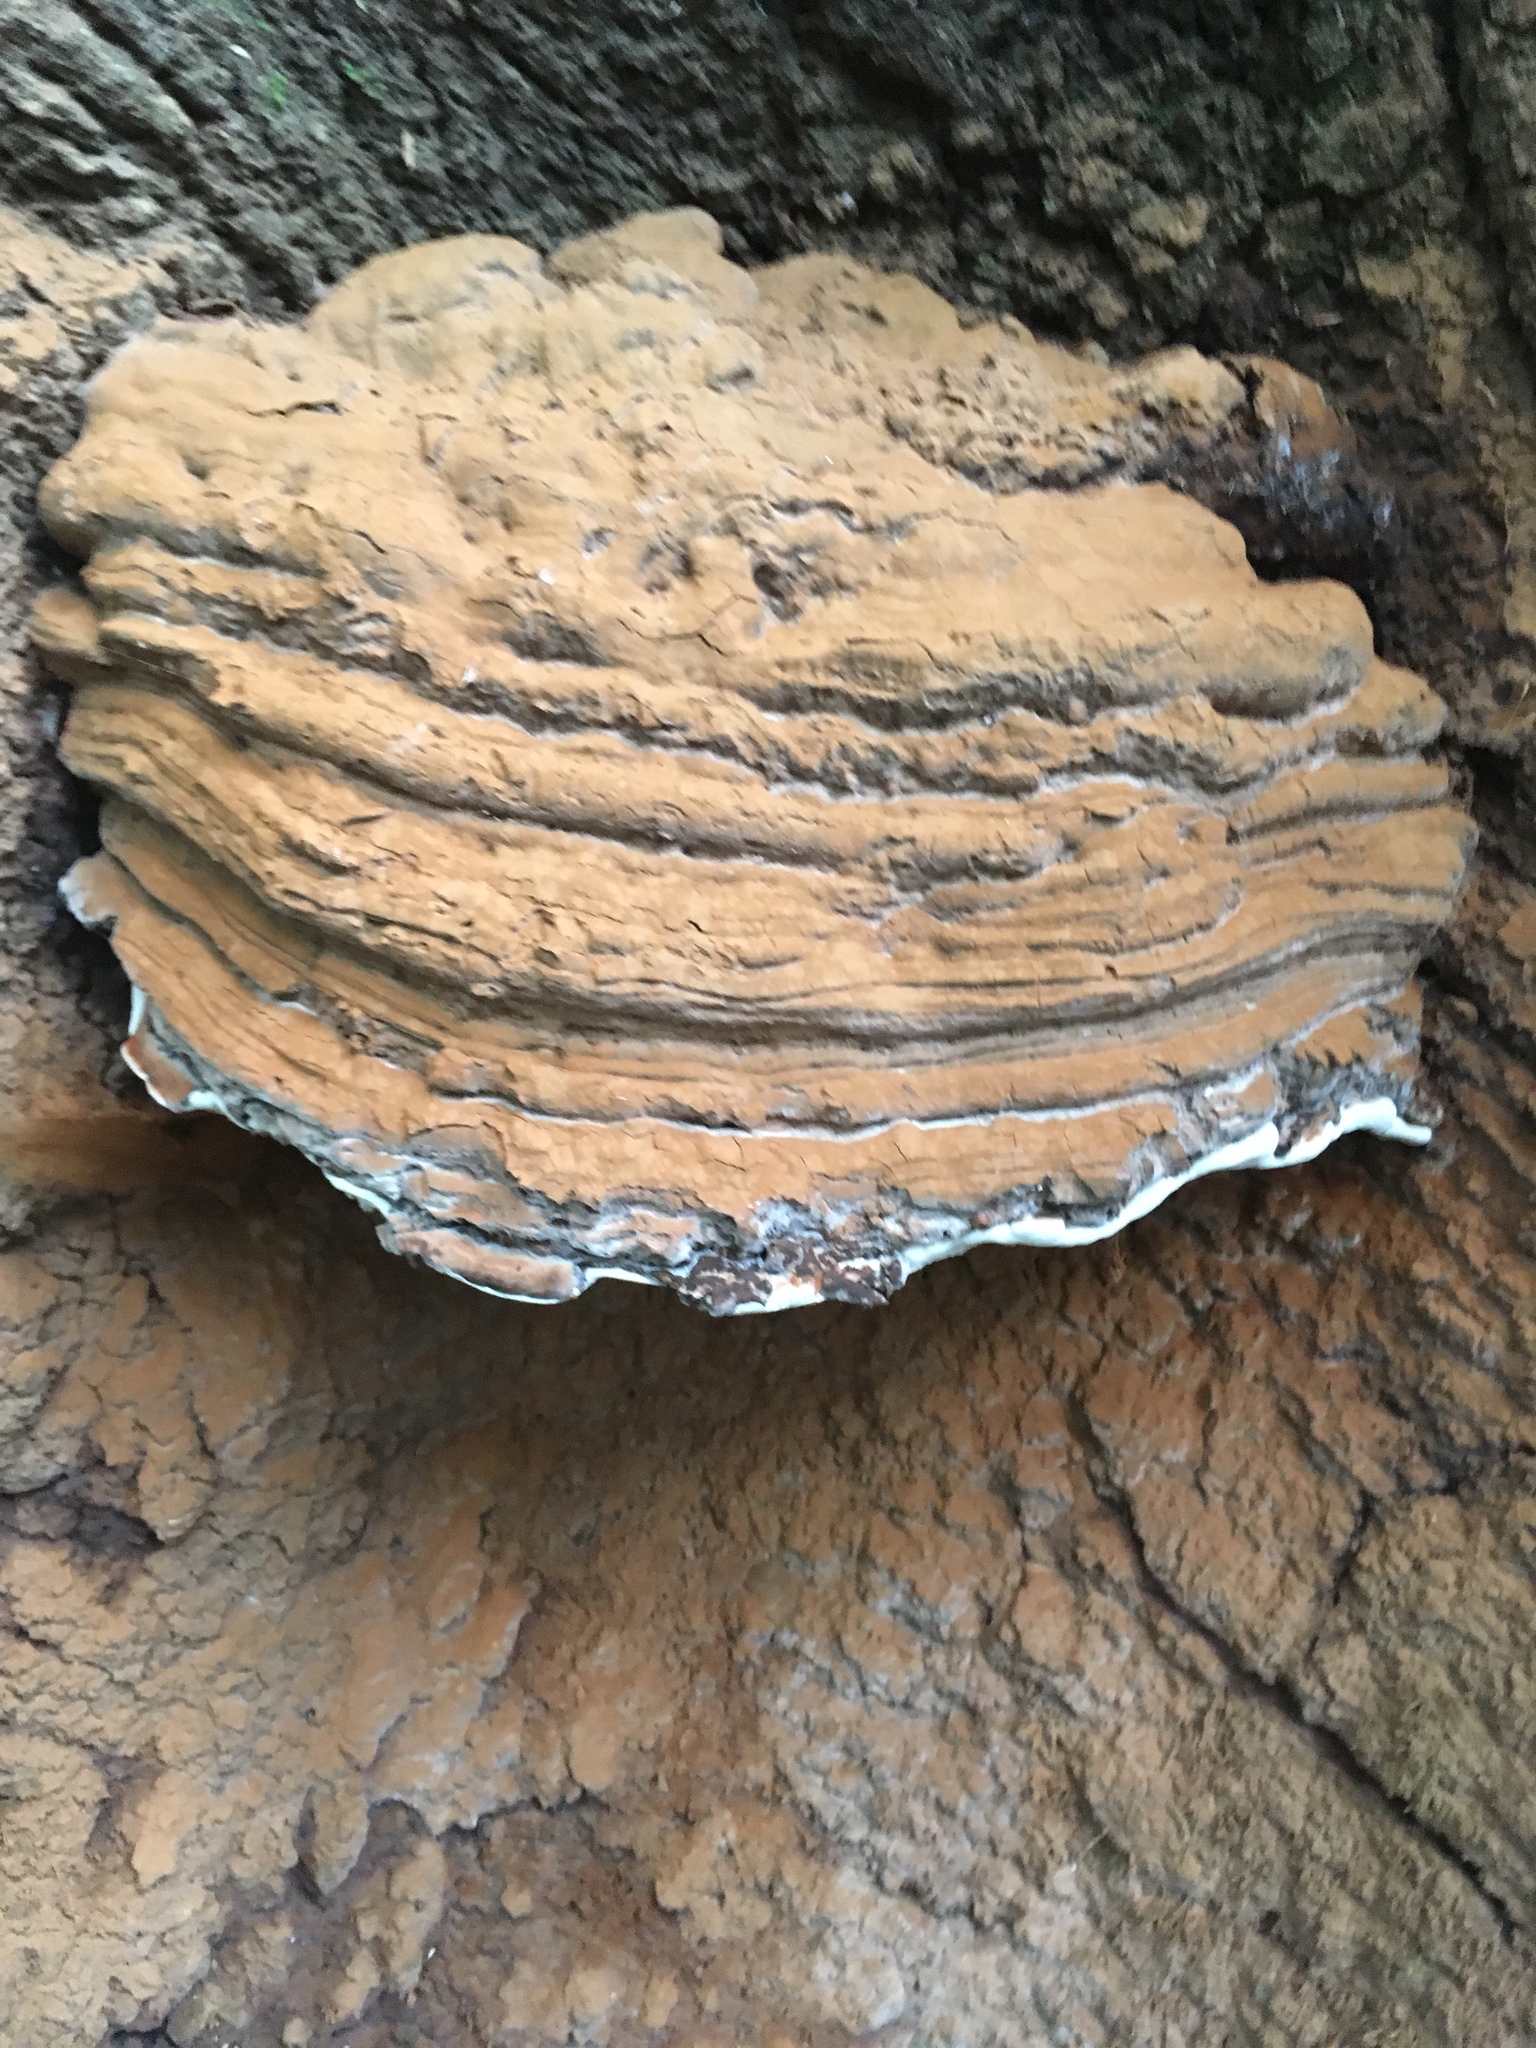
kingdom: Fungi
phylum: Basidiomycota
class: Agaricomycetes
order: Polyporales
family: Polyporaceae
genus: Ganoderma
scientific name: Ganoderma brownii
